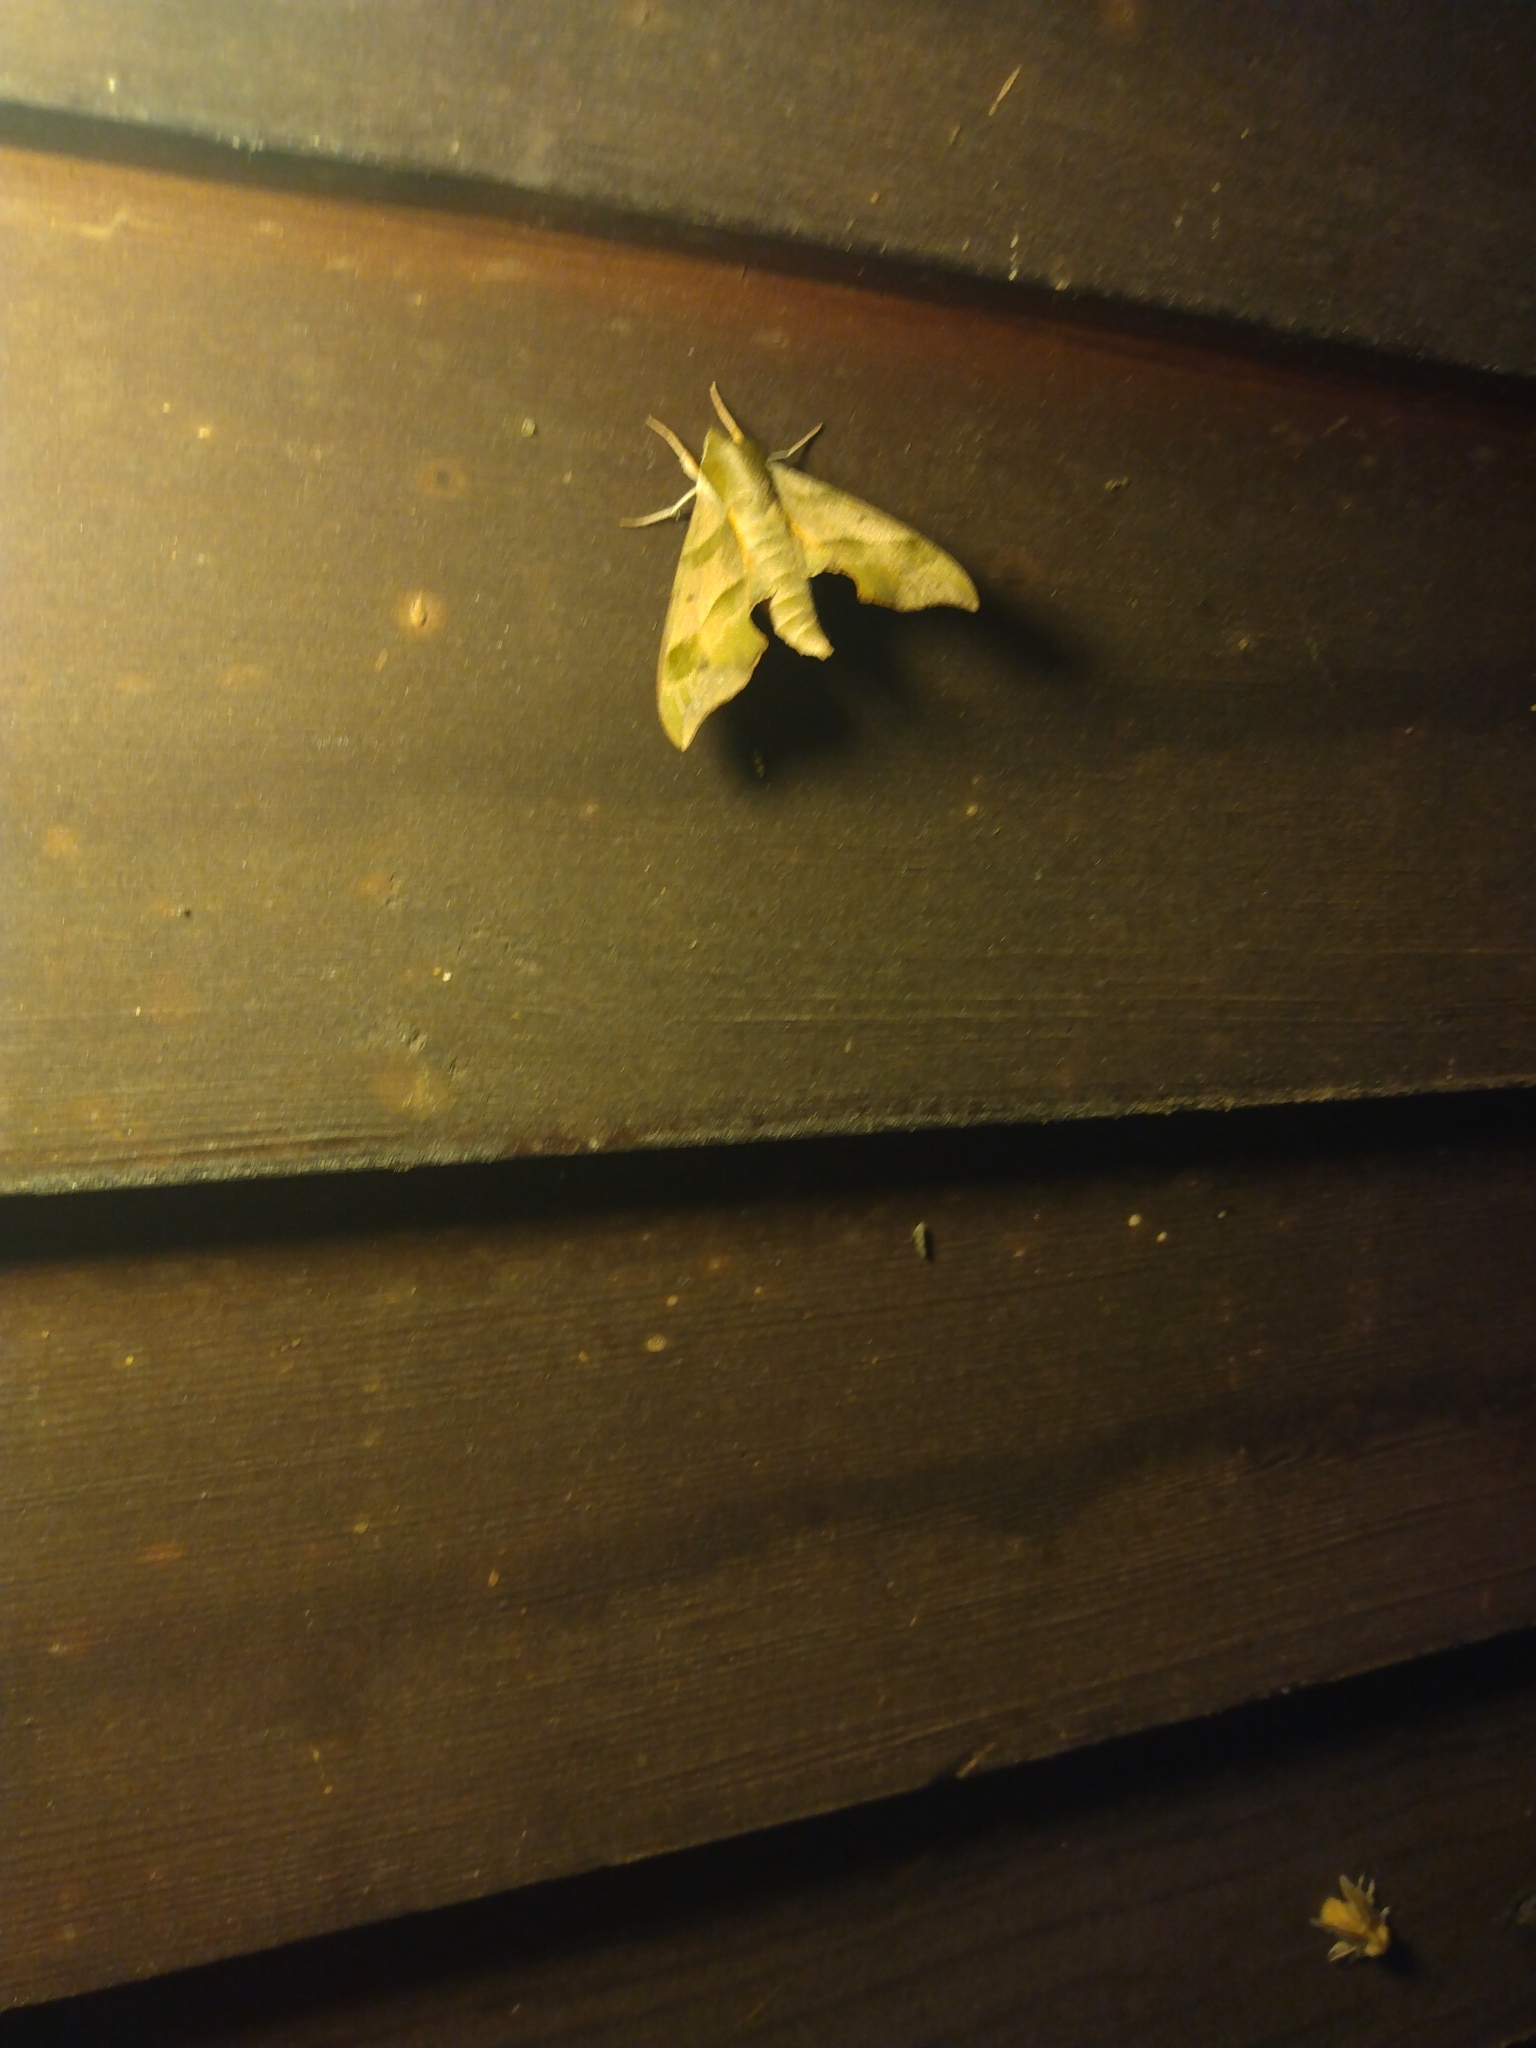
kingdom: Animalia
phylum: Arthropoda
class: Insecta
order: Lepidoptera
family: Sphingidae
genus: Darapsa
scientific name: Darapsa myron
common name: Hog sphinx
